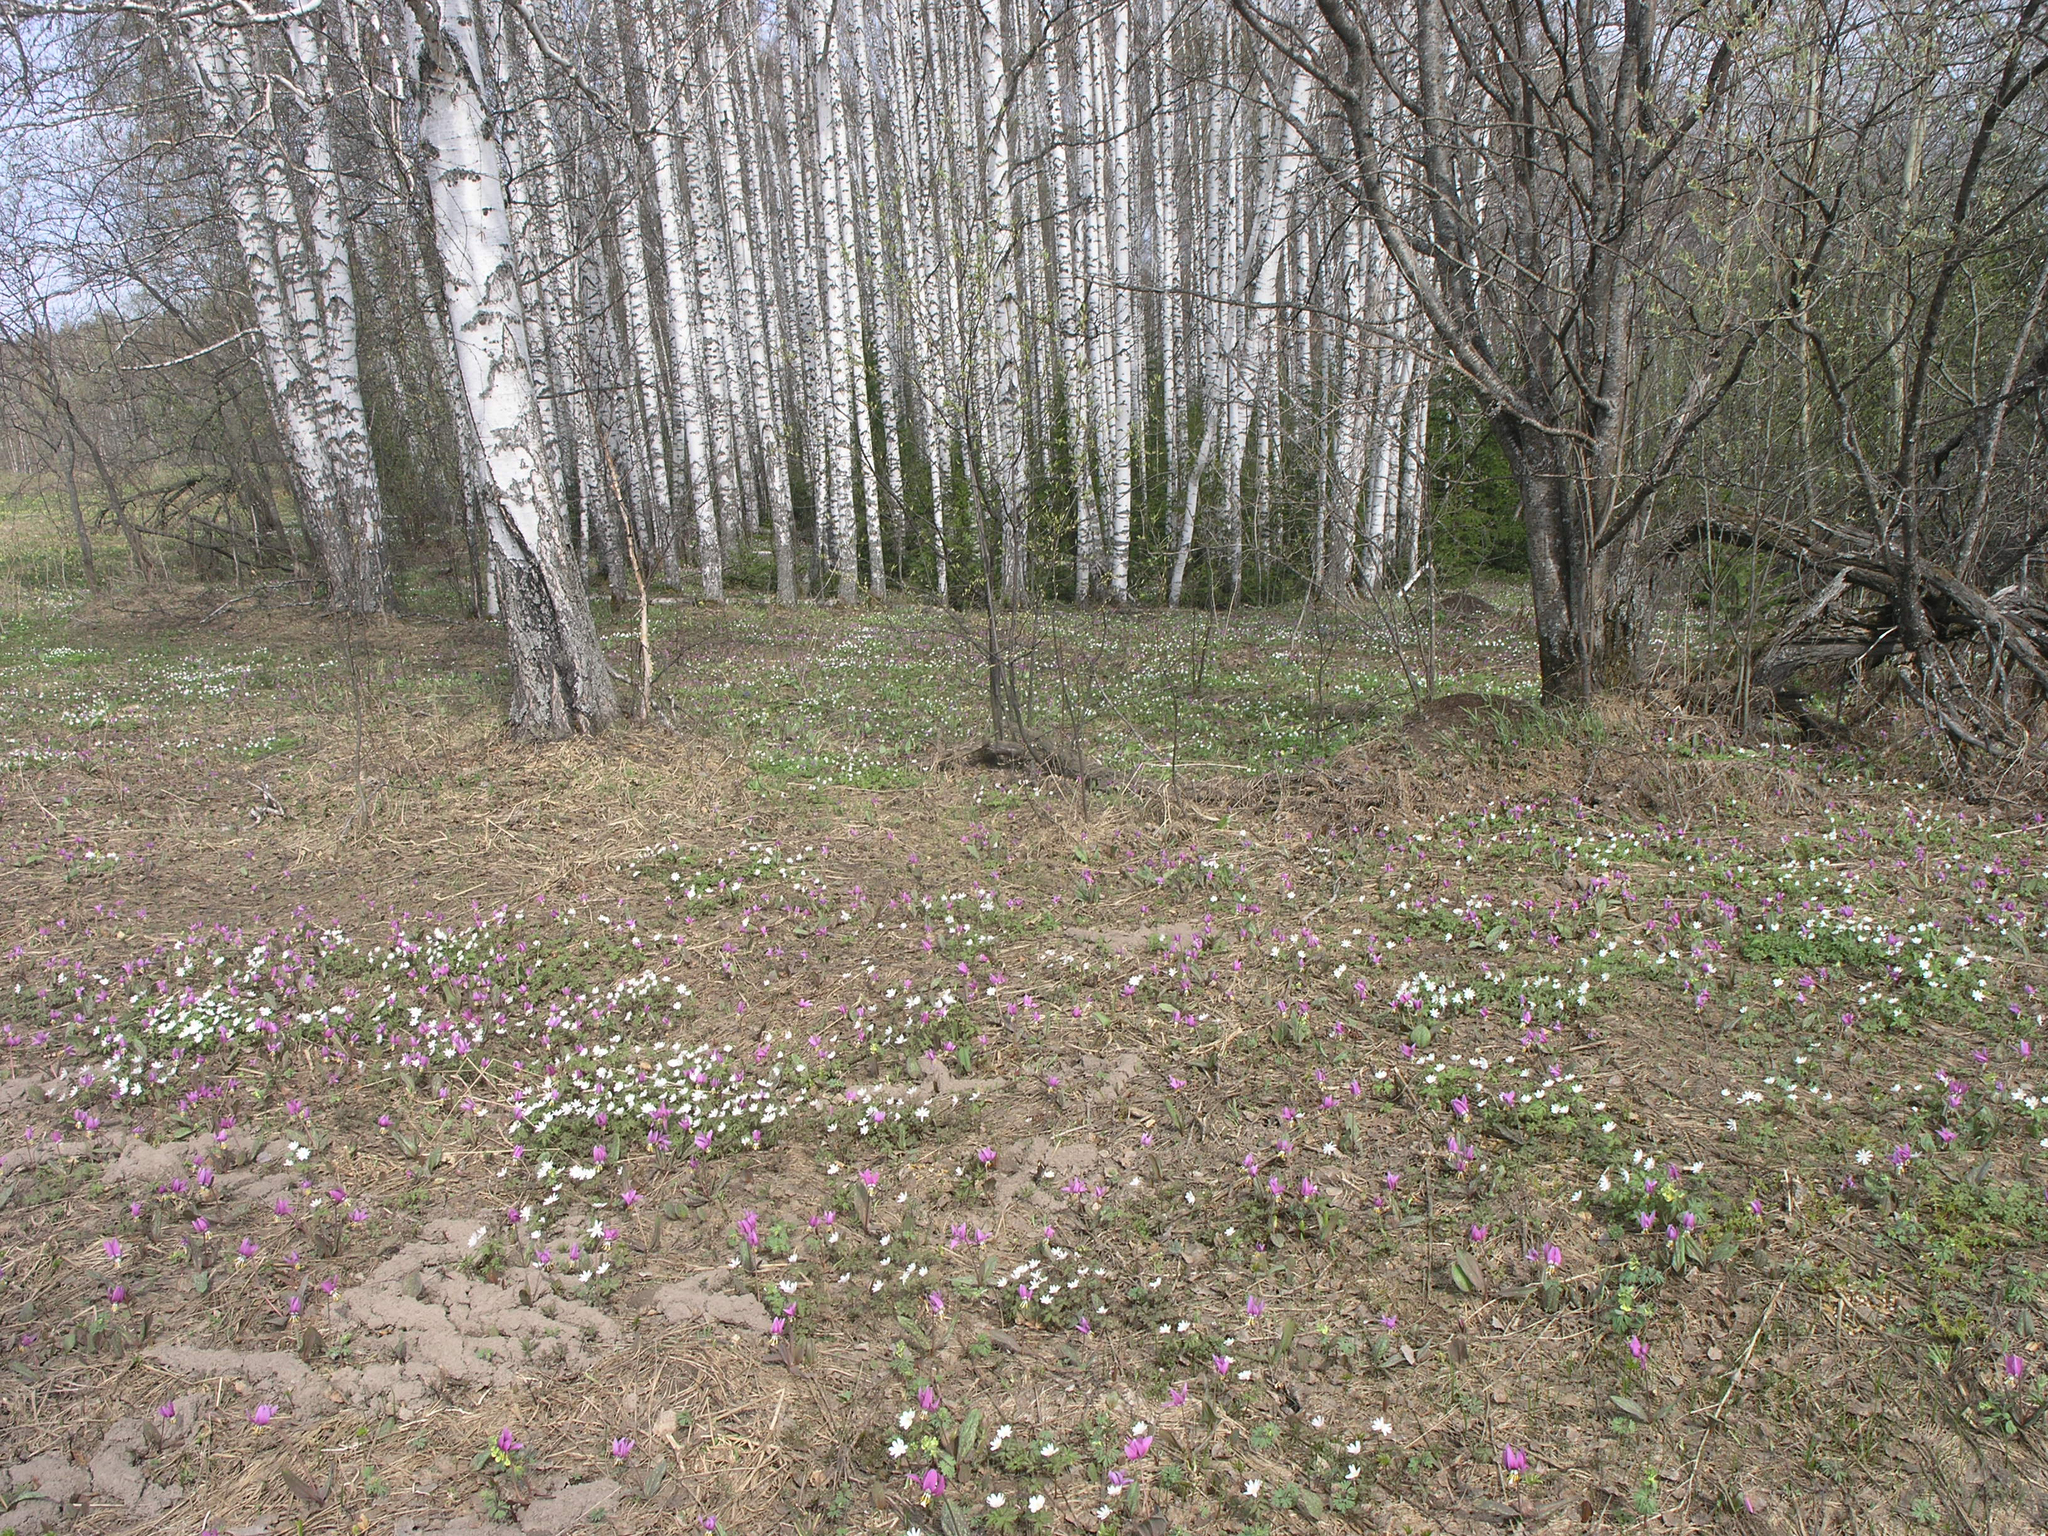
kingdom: Plantae
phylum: Tracheophyta
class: Liliopsida
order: Liliales
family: Liliaceae
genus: Erythronium
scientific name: Erythronium sibiricum
